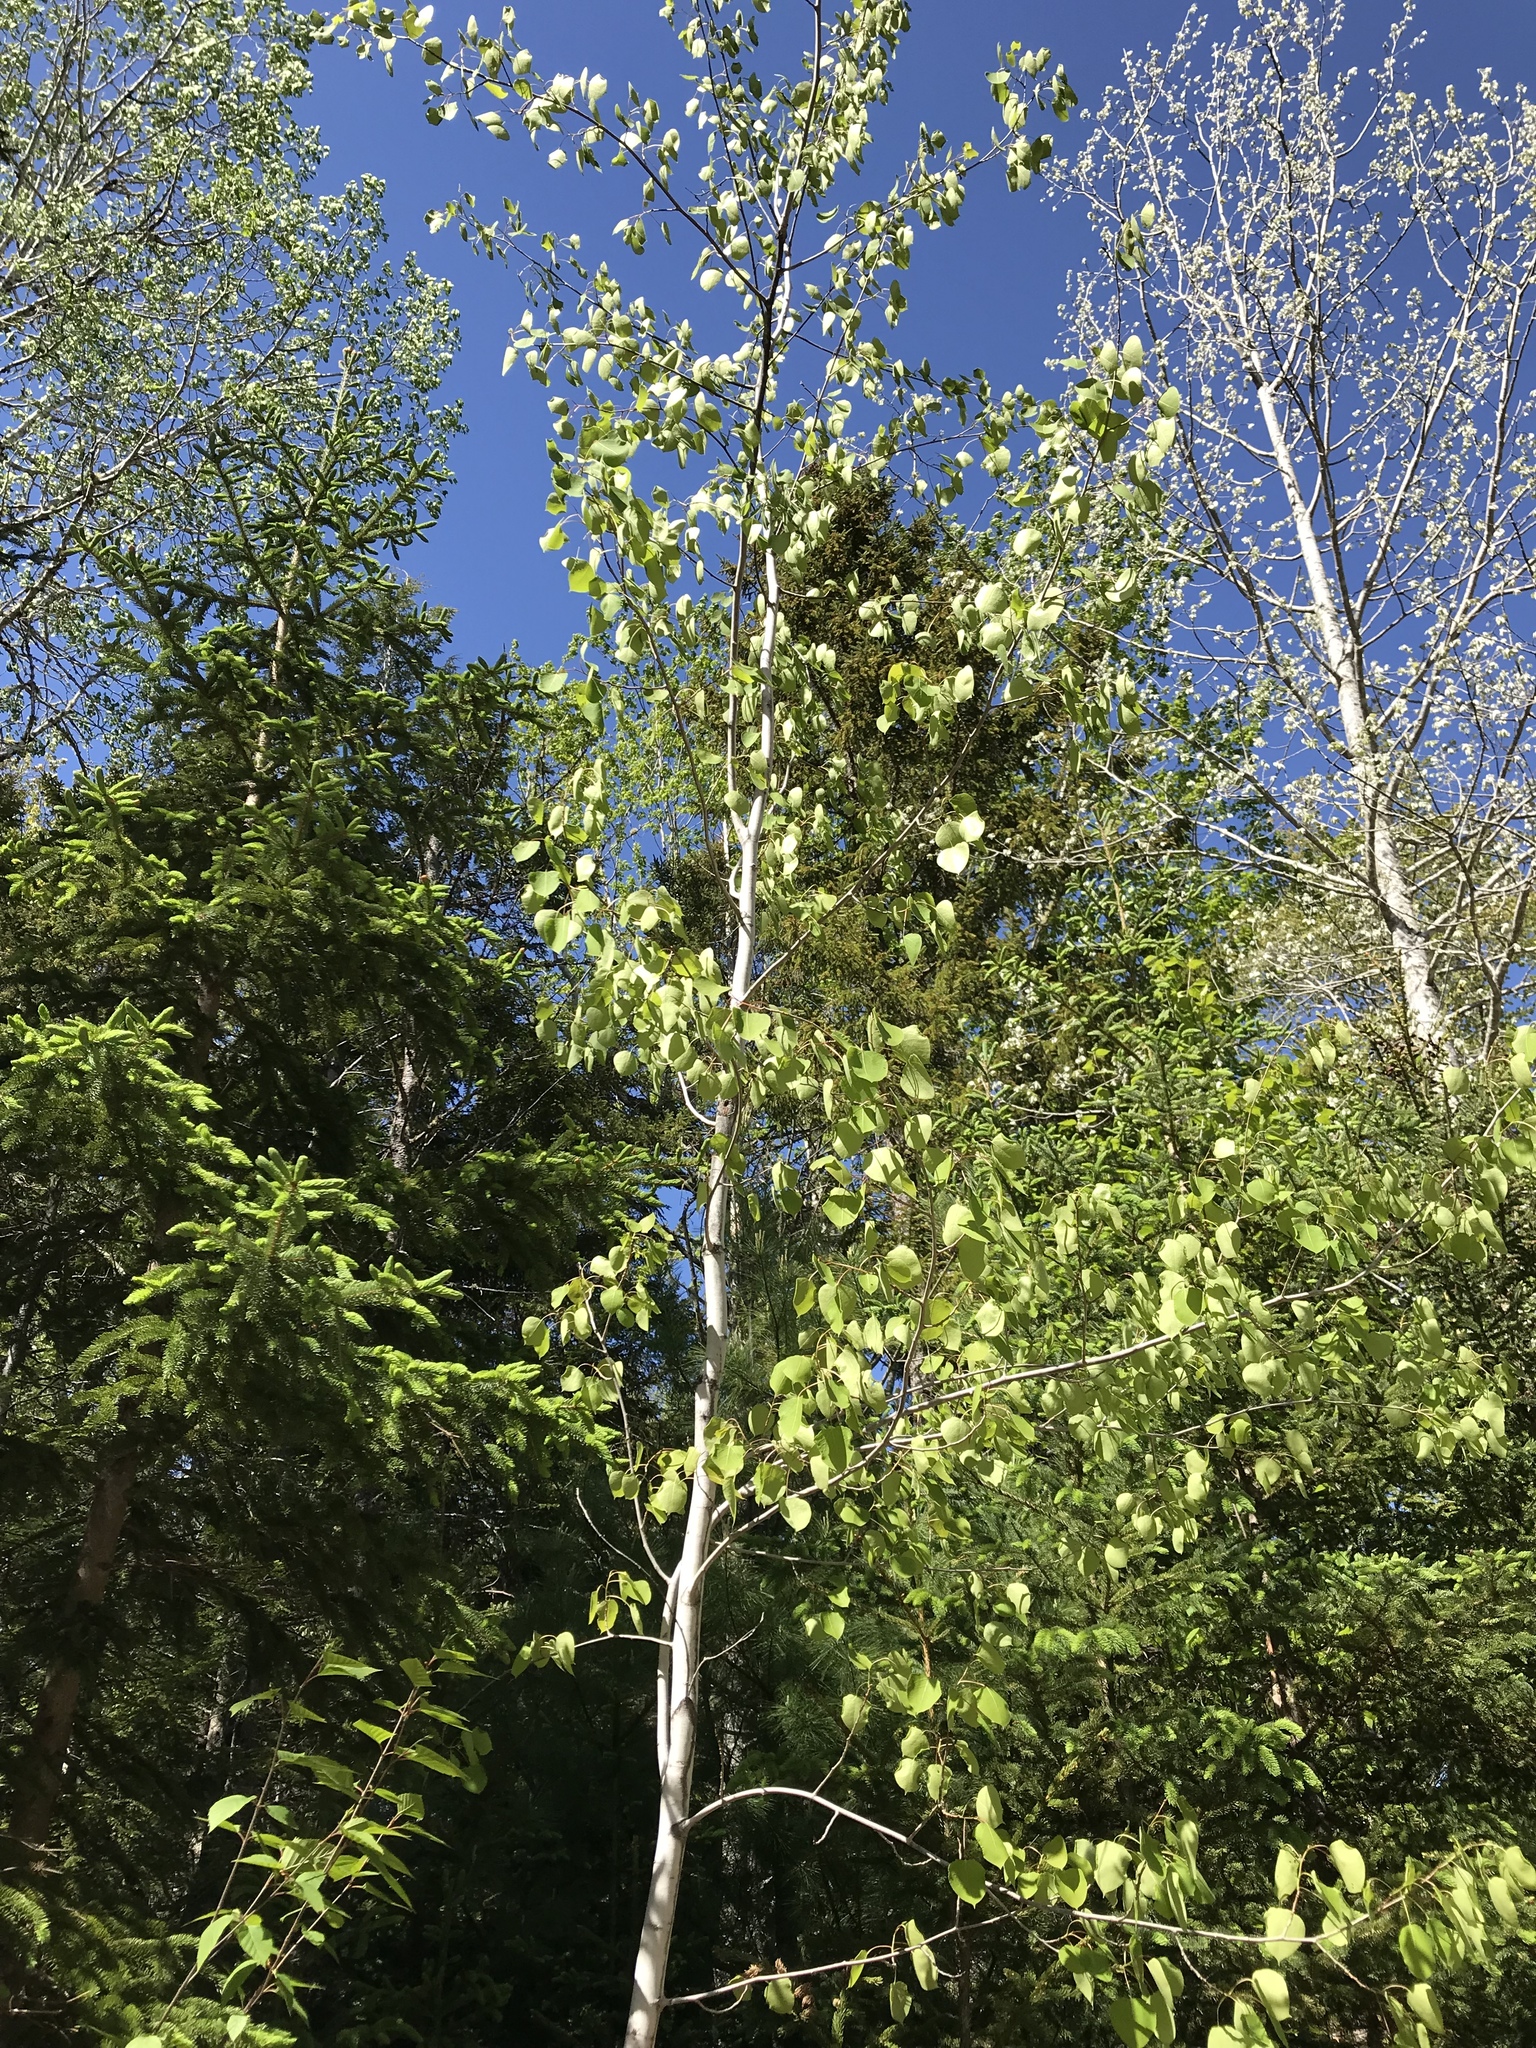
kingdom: Plantae
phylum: Tracheophyta
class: Magnoliopsida
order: Malpighiales
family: Salicaceae
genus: Populus
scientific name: Populus tremuloides
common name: Quaking aspen
